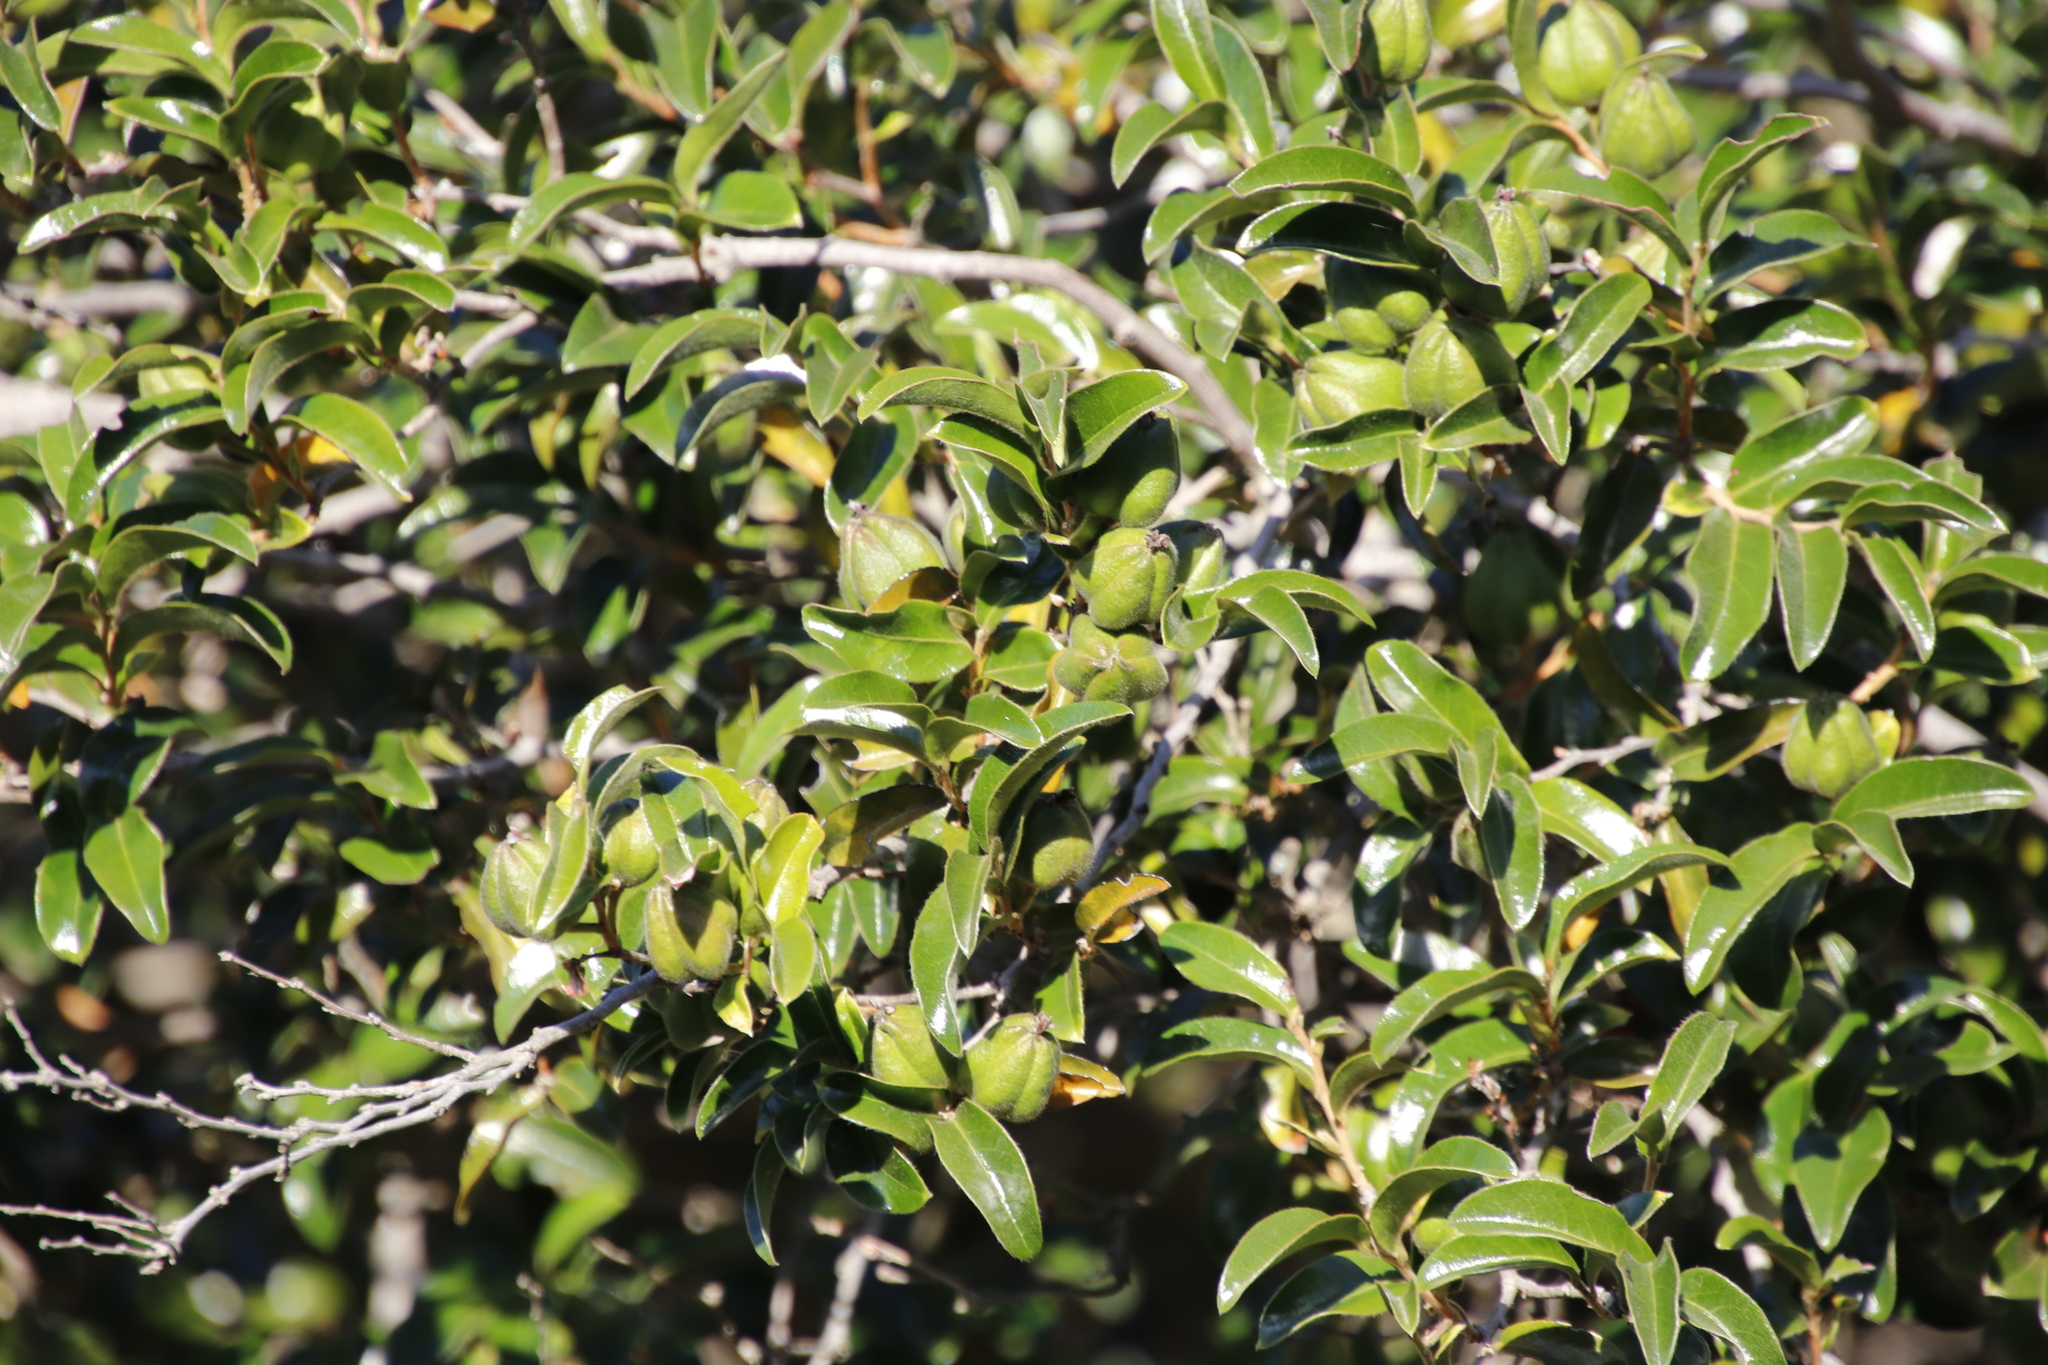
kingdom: Plantae
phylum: Tracheophyta
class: Magnoliopsida
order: Ericales
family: Ebenaceae
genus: Diospyros
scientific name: Diospyros whyteana
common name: Bladder-nut
